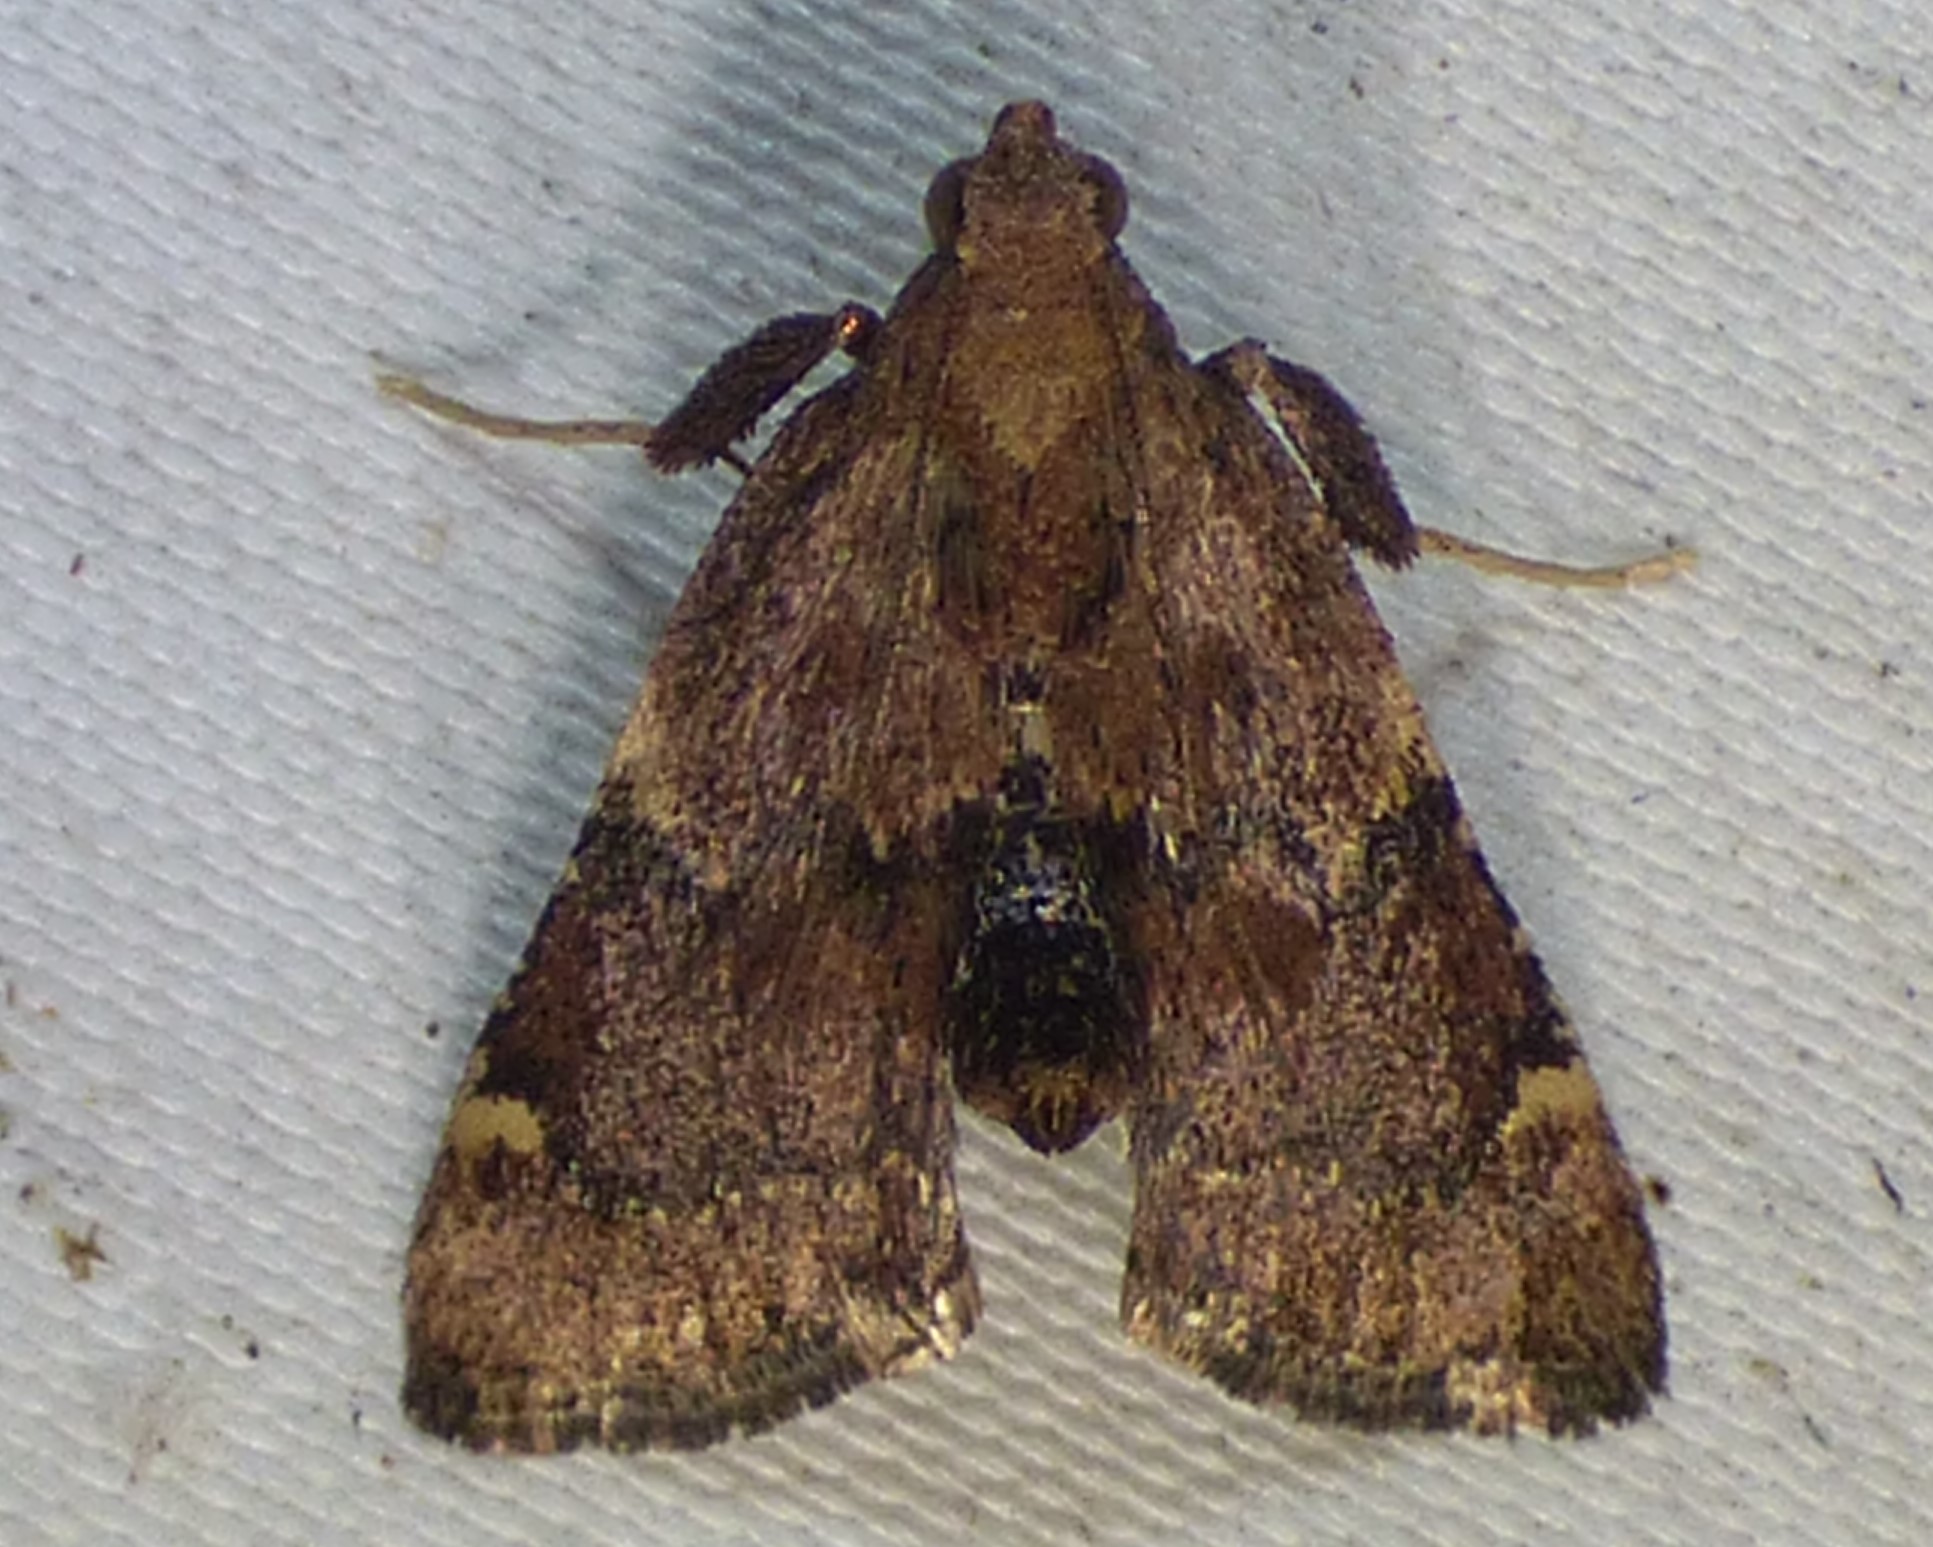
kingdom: Animalia
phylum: Arthropoda
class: Insecta
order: Lepidoptera
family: Pyralidae
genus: Hypsopygia
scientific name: Hypsopygia intermedialis
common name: Red-shawled moth
